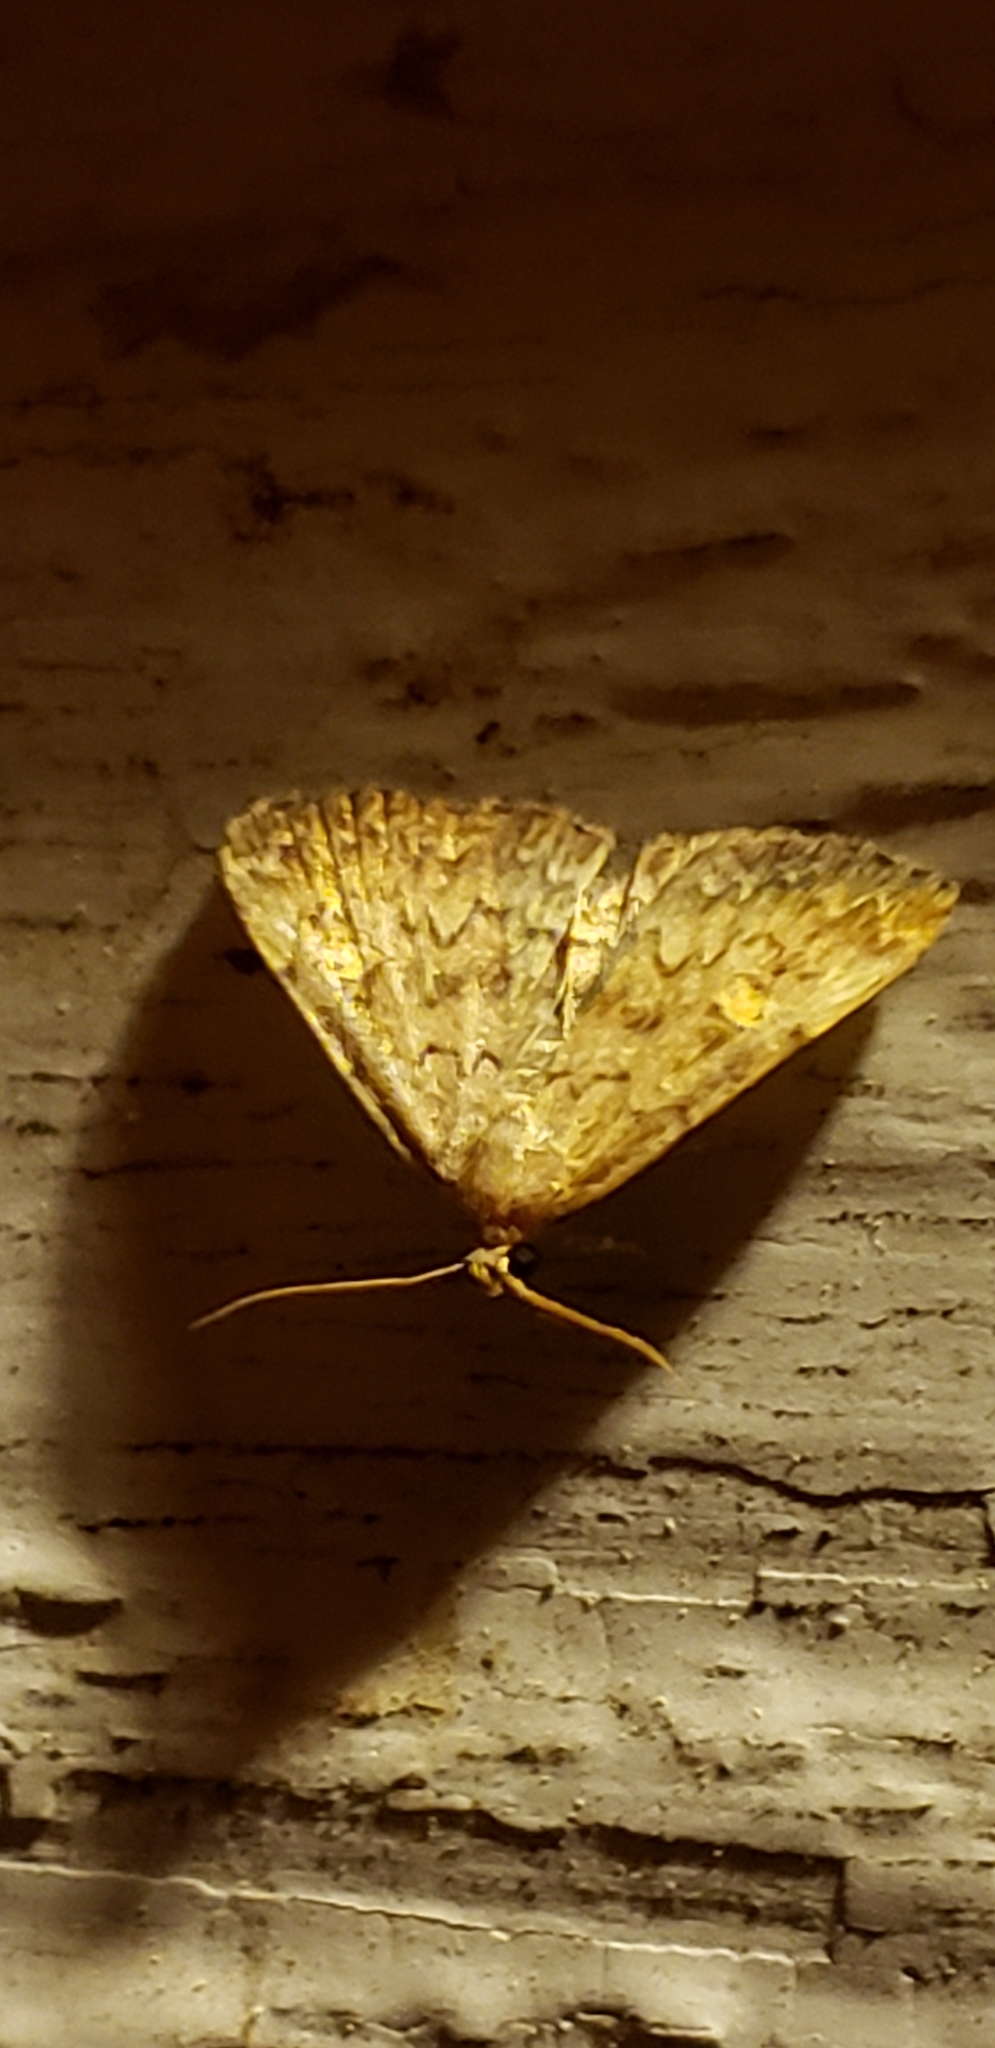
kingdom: Animalia
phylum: Arthropoda
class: Insecta
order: Lepidoptera
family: Erebidae
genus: Idia
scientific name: Idia aemula
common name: Common idia moth
